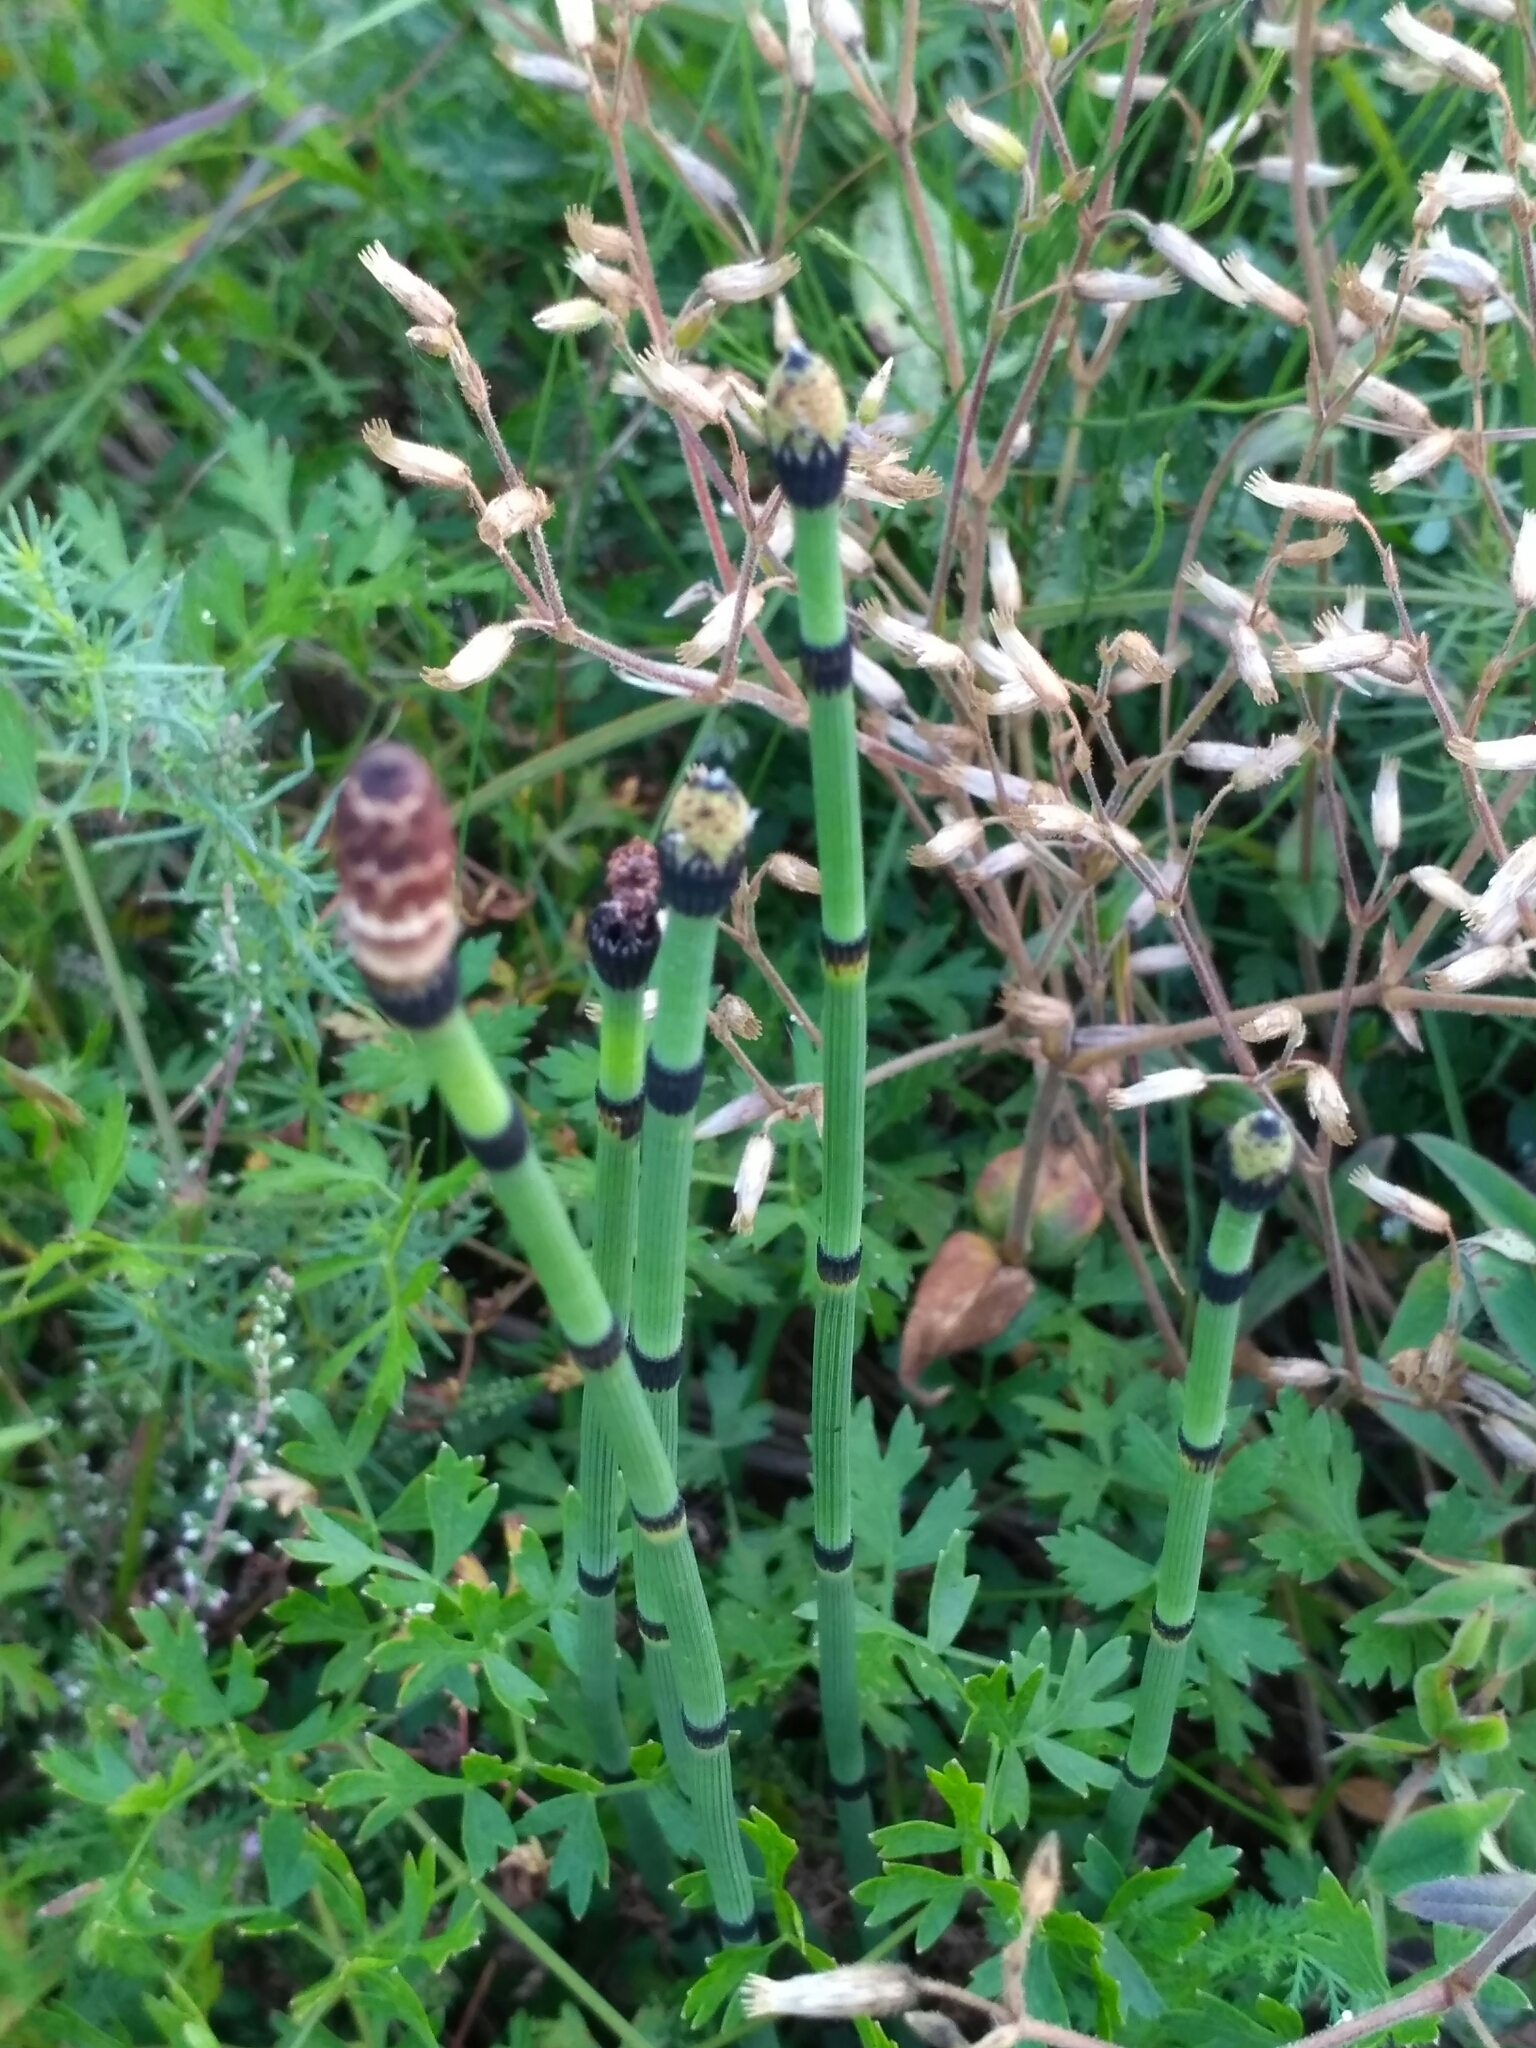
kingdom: Plantae
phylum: Tracheophyta
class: Polypodiopsida
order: Equisetales
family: Equisetaceae
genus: Equisetum
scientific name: Equisetum hyemale
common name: Rough horsetail
